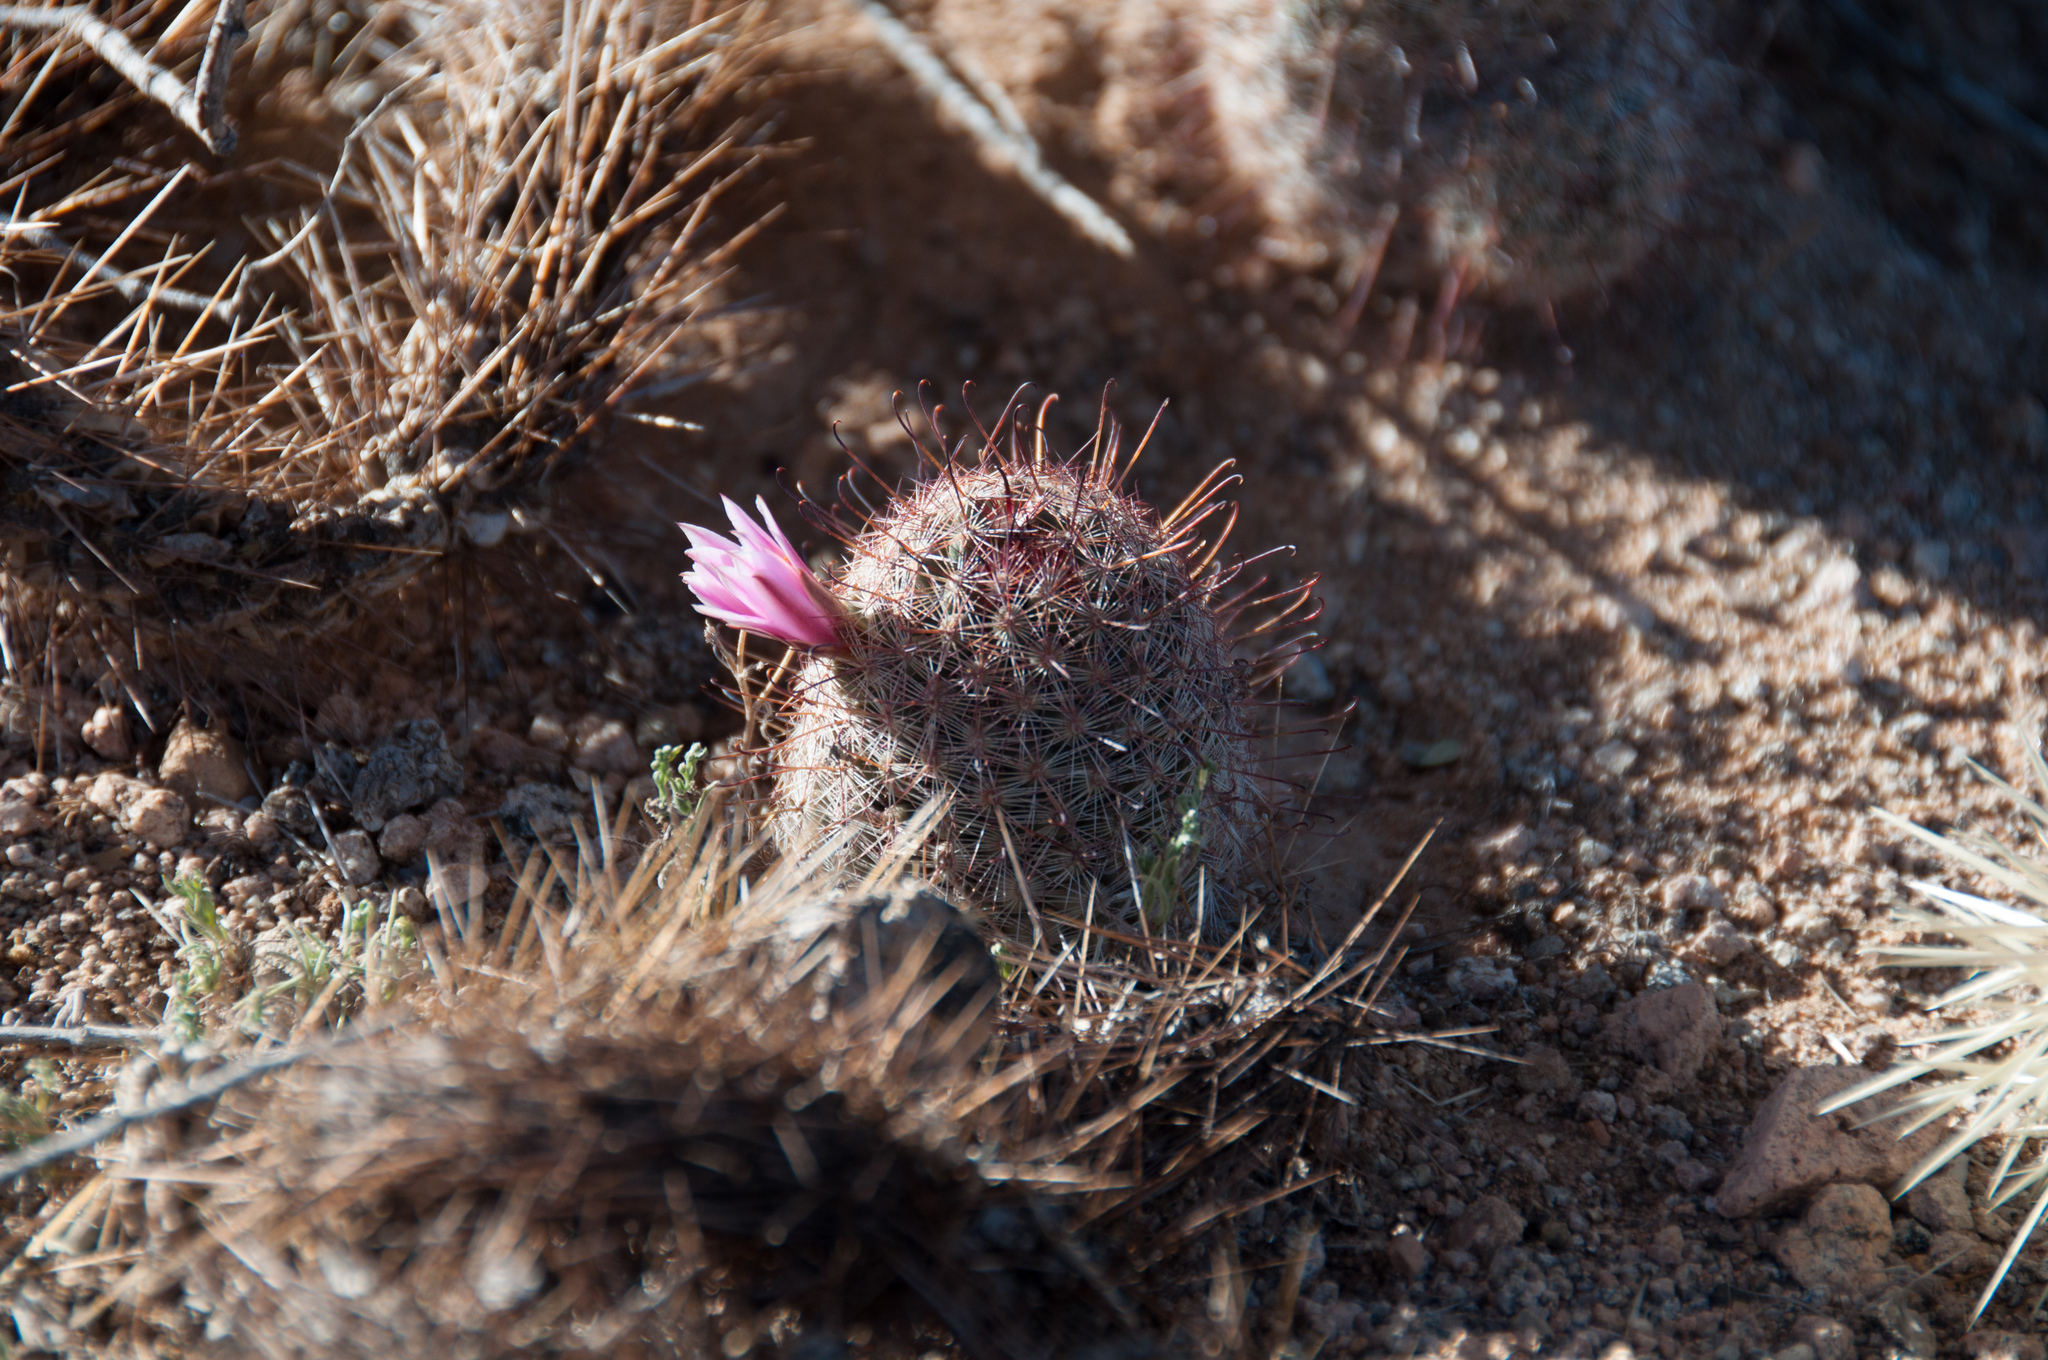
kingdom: Plantae
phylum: Tracheophyta
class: Magnoliopsida
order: Caryophyllales
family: Cactaceae
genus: Cochemiea
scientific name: Cochemiea grahamii
